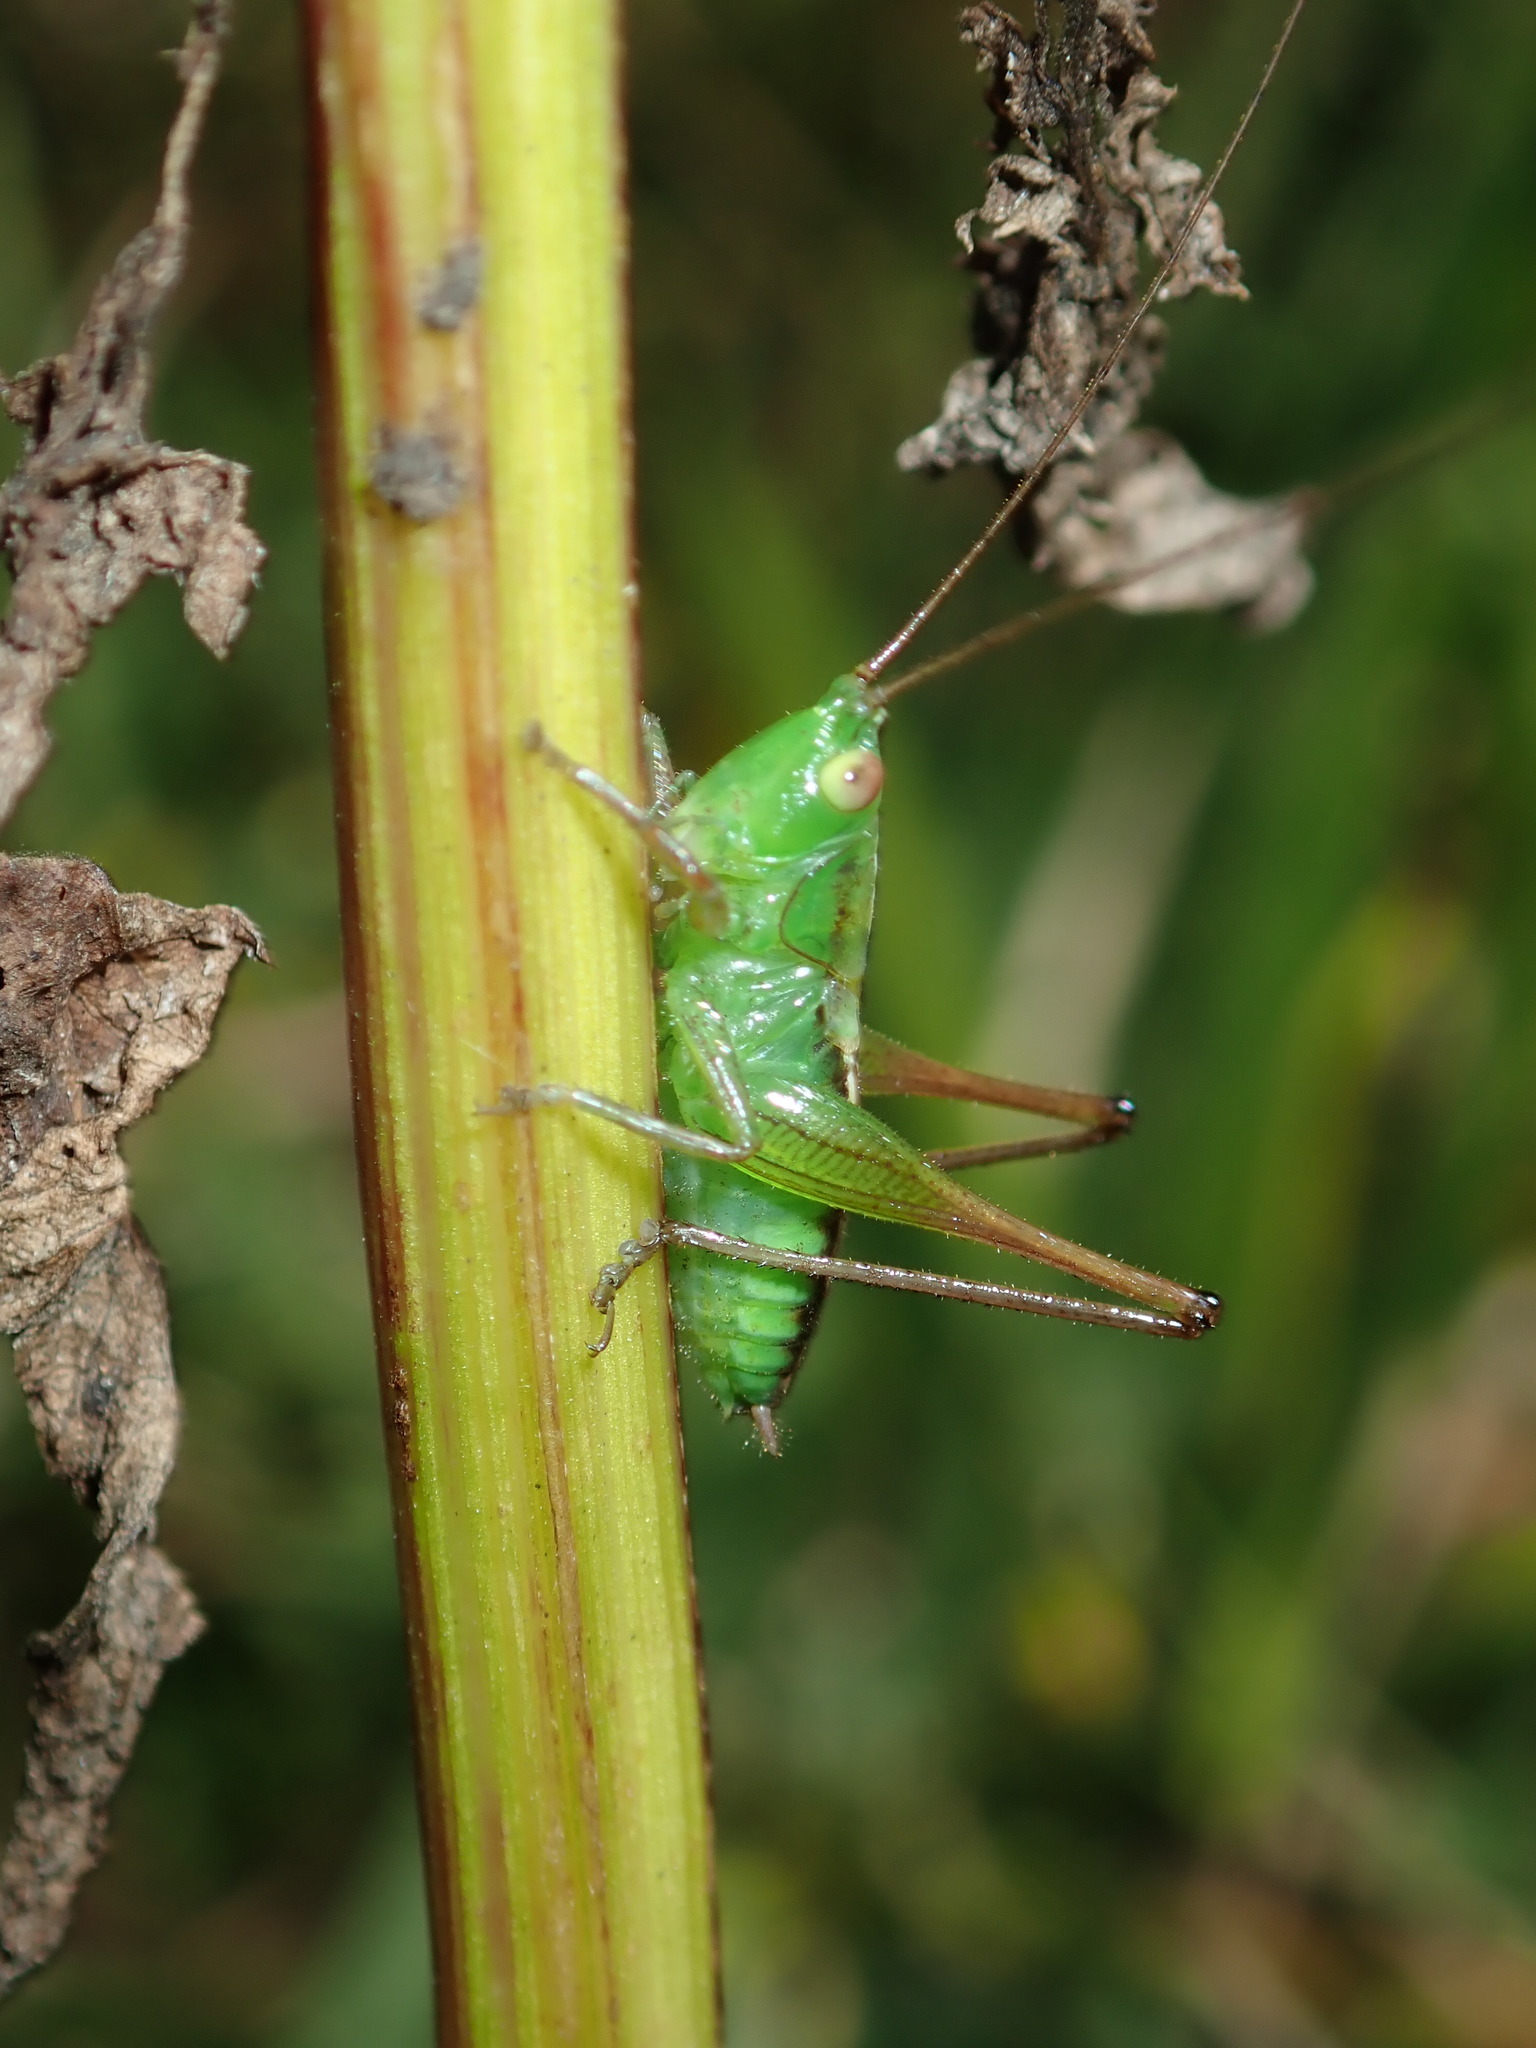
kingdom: Animalia
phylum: Arthropoda
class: Insecta
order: Orthoptera
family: Tettigoniidae
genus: Conocephalus
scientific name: Conocephalus semivittatus
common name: Blackish meadow katydid
